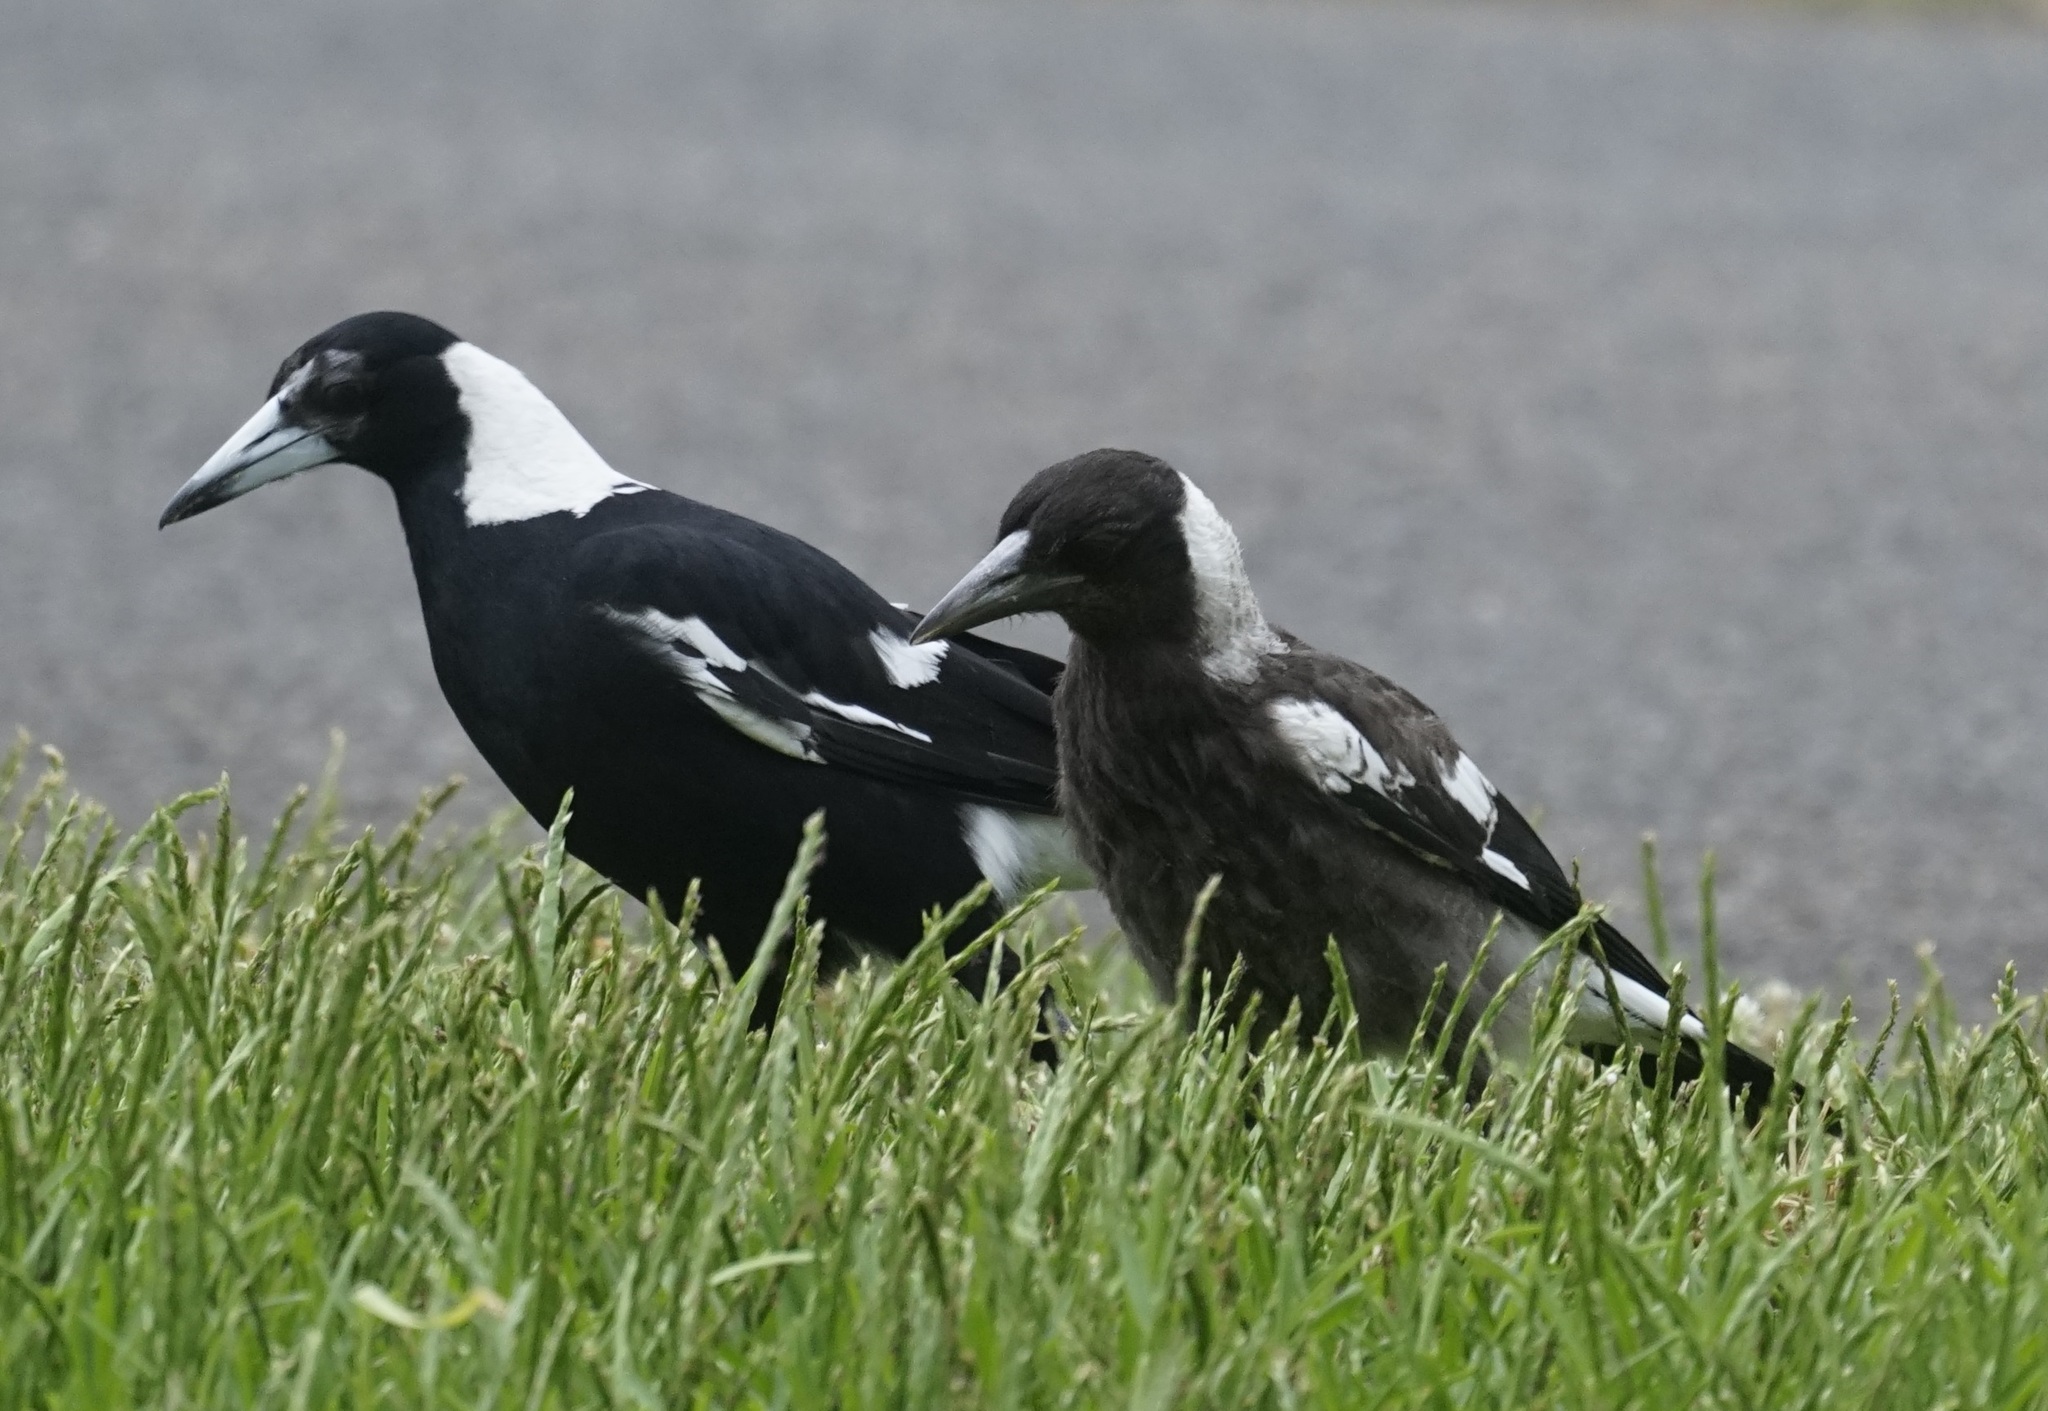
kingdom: Animalia
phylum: Chordata
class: Aves
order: Passeriformes
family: Cracticidae
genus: Gymnorhina
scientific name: Gymnorhina tibicen
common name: Australian magpie
